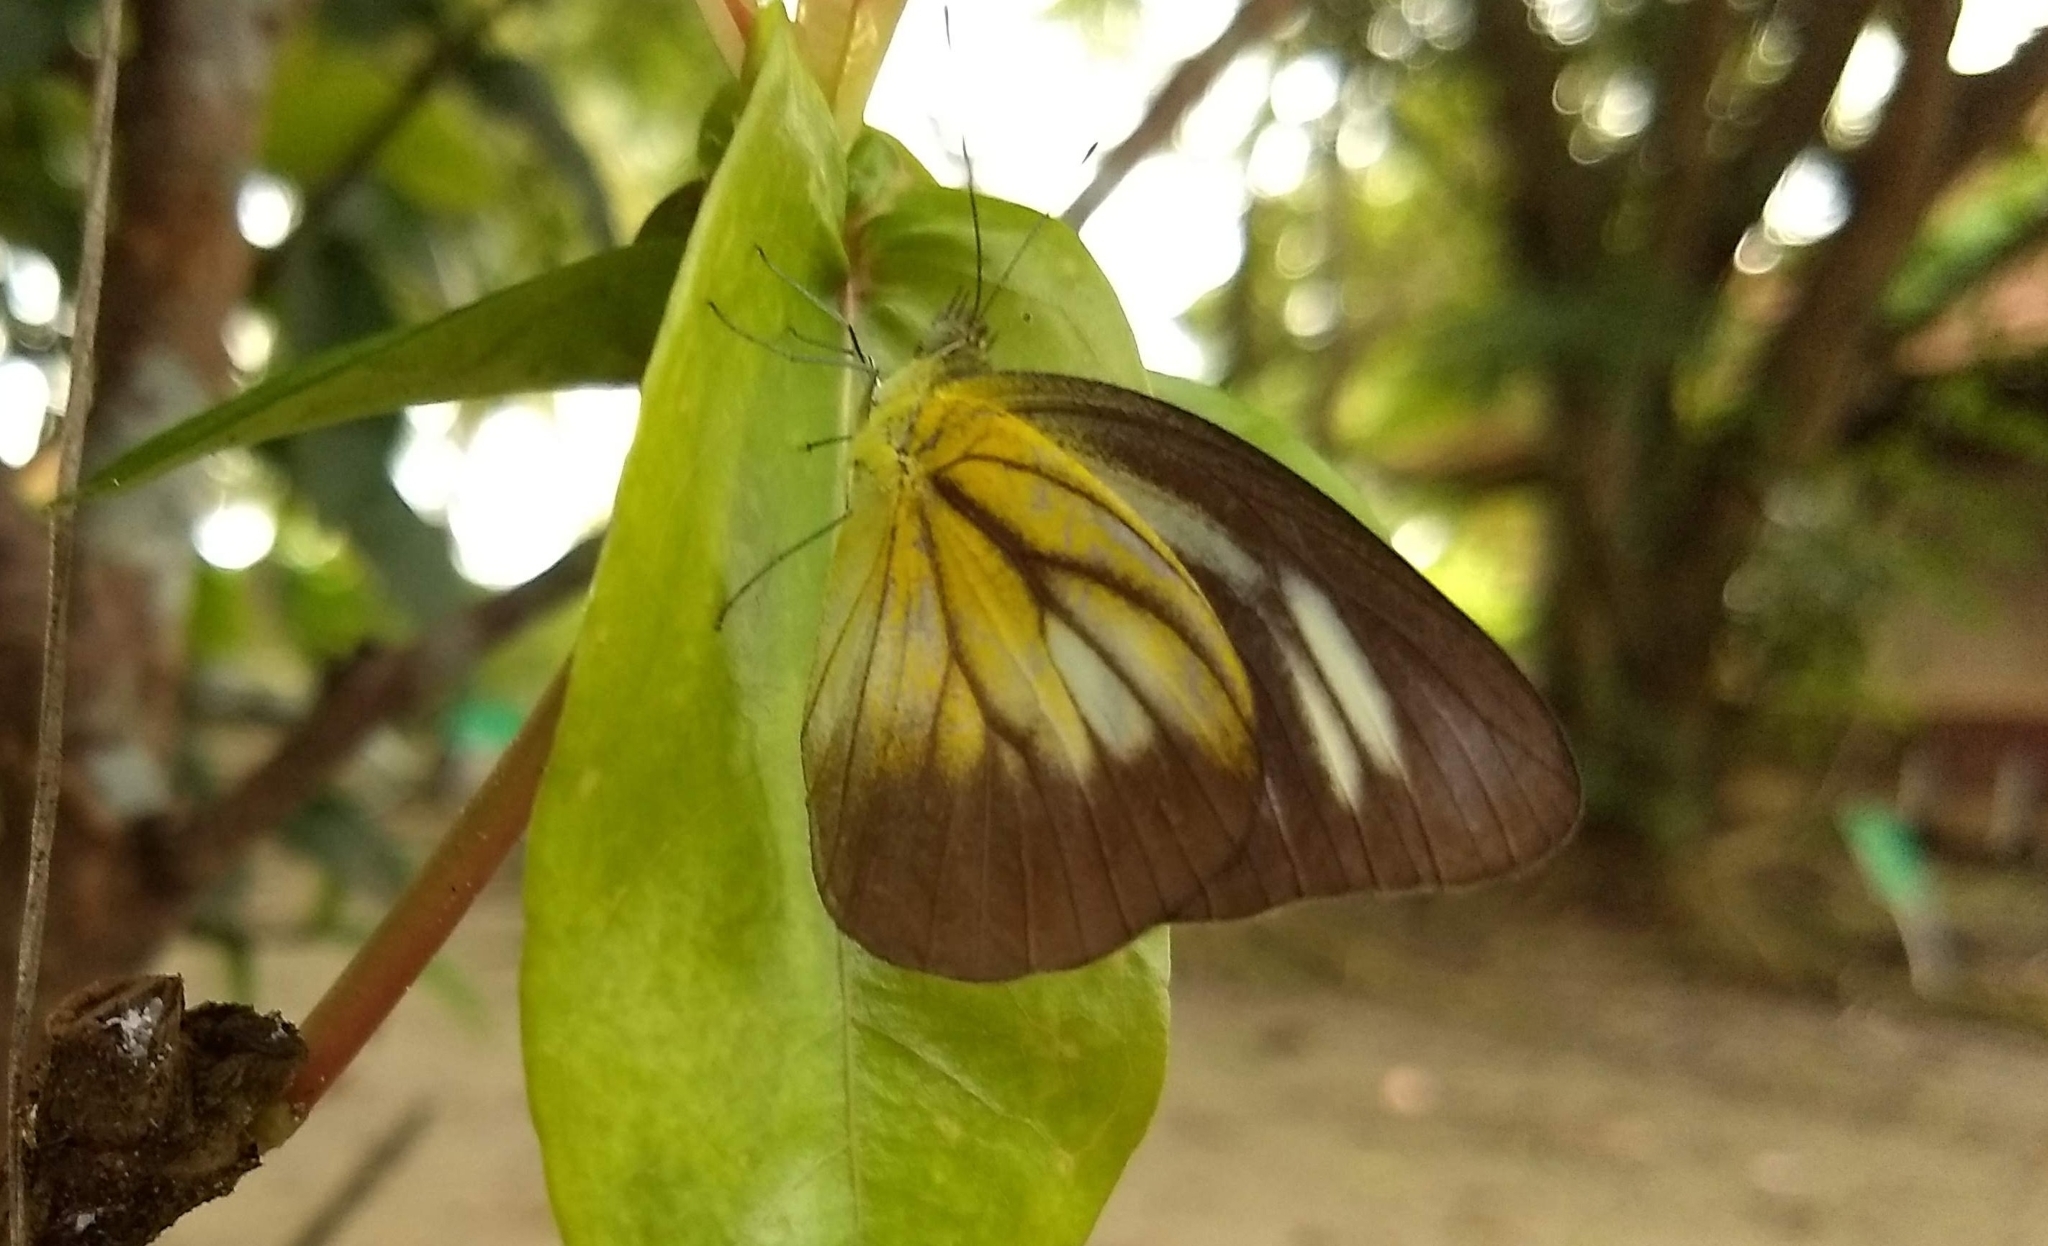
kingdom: Animalia
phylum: Arthropoda
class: Insecta
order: Lepidoptera
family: Pieridae
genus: Appias
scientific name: Appias lyncida
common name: Chocolate albatross
